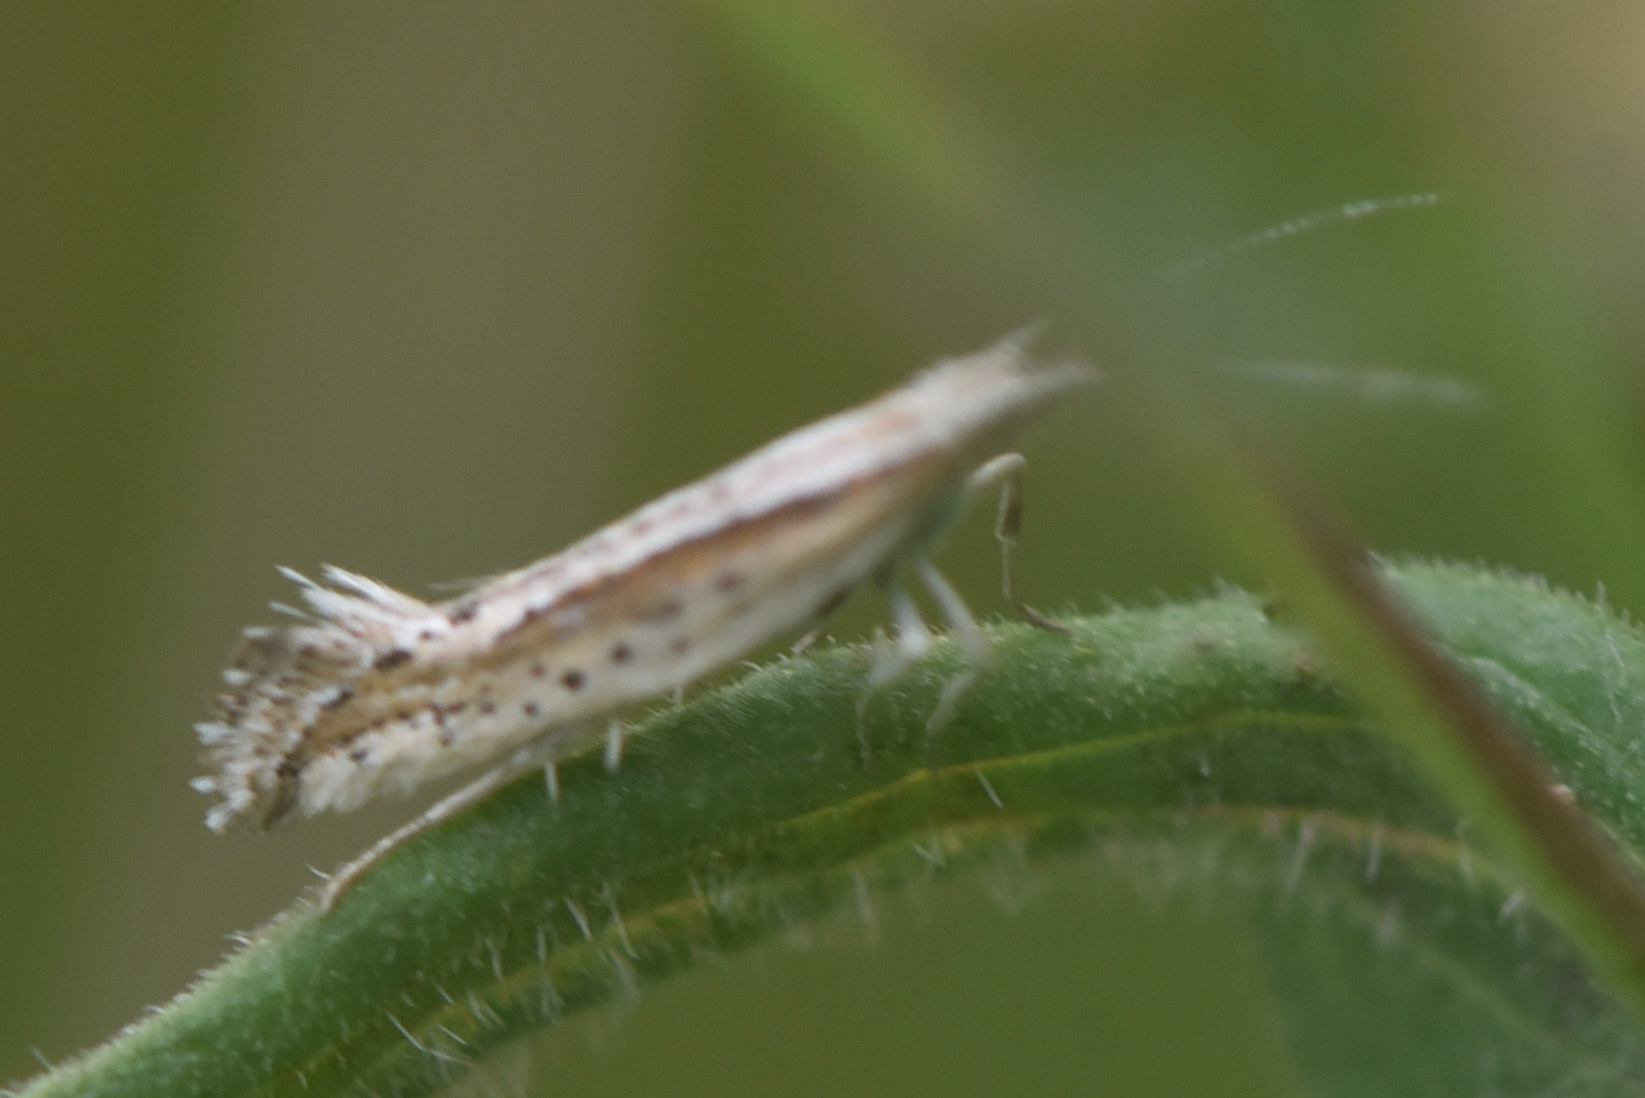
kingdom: Animalia
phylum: Arthropoda
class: Insecta
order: Lepidoptera
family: Plutellidae
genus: Plutella
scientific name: Plutella porrectella
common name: Dame's rocket moth
